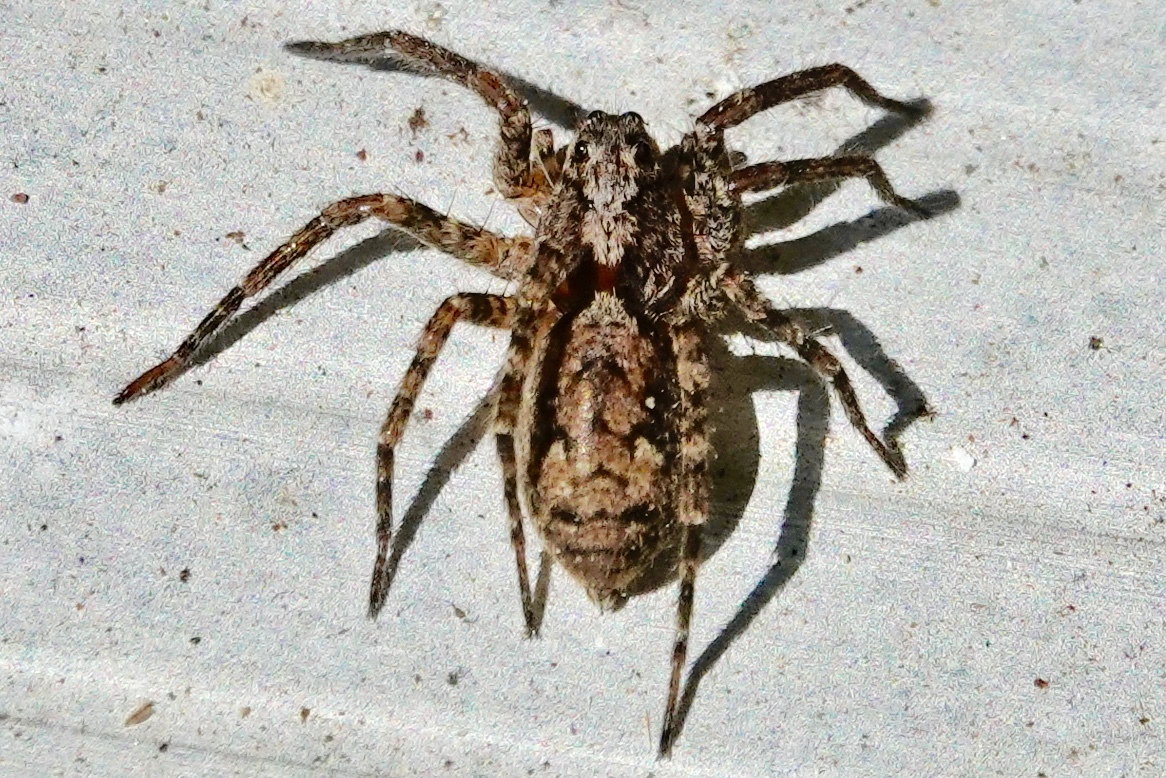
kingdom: Animalia
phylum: Arthropoda
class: Arachnida
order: Araneae
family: Lycosidae
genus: Gladicosa
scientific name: Gladicosa pulchra
